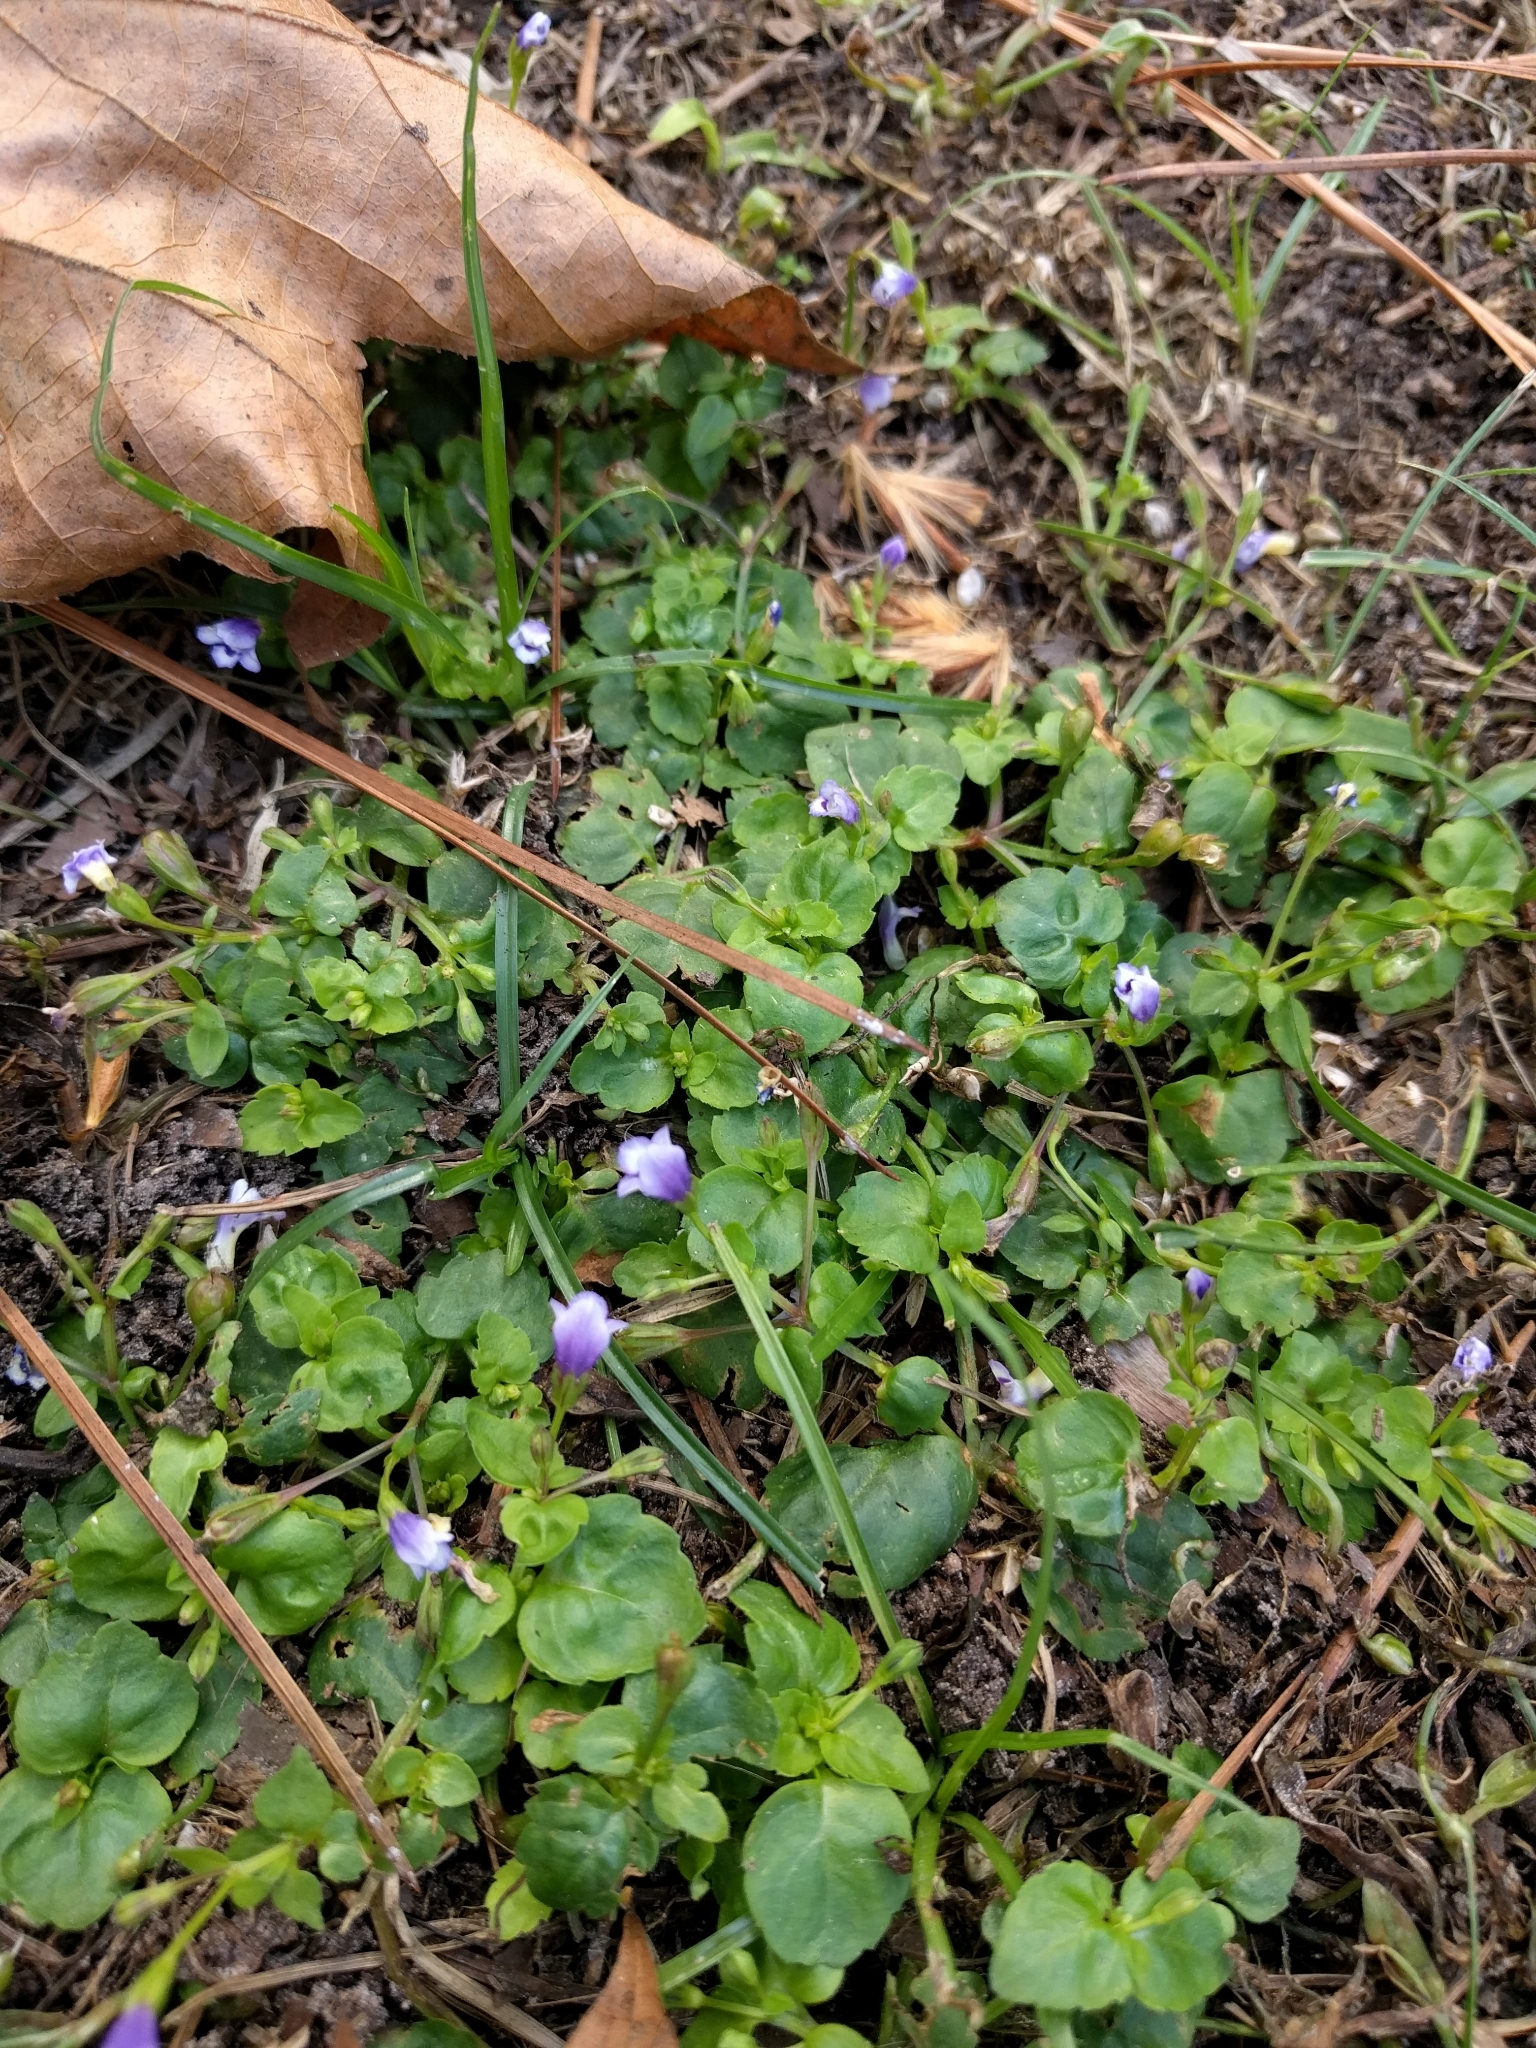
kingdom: Plantae
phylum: Tracheophyta
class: Magnoliopsida
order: Lamiales
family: Linderniaceae
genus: Torenia
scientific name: Torenia crustacea
